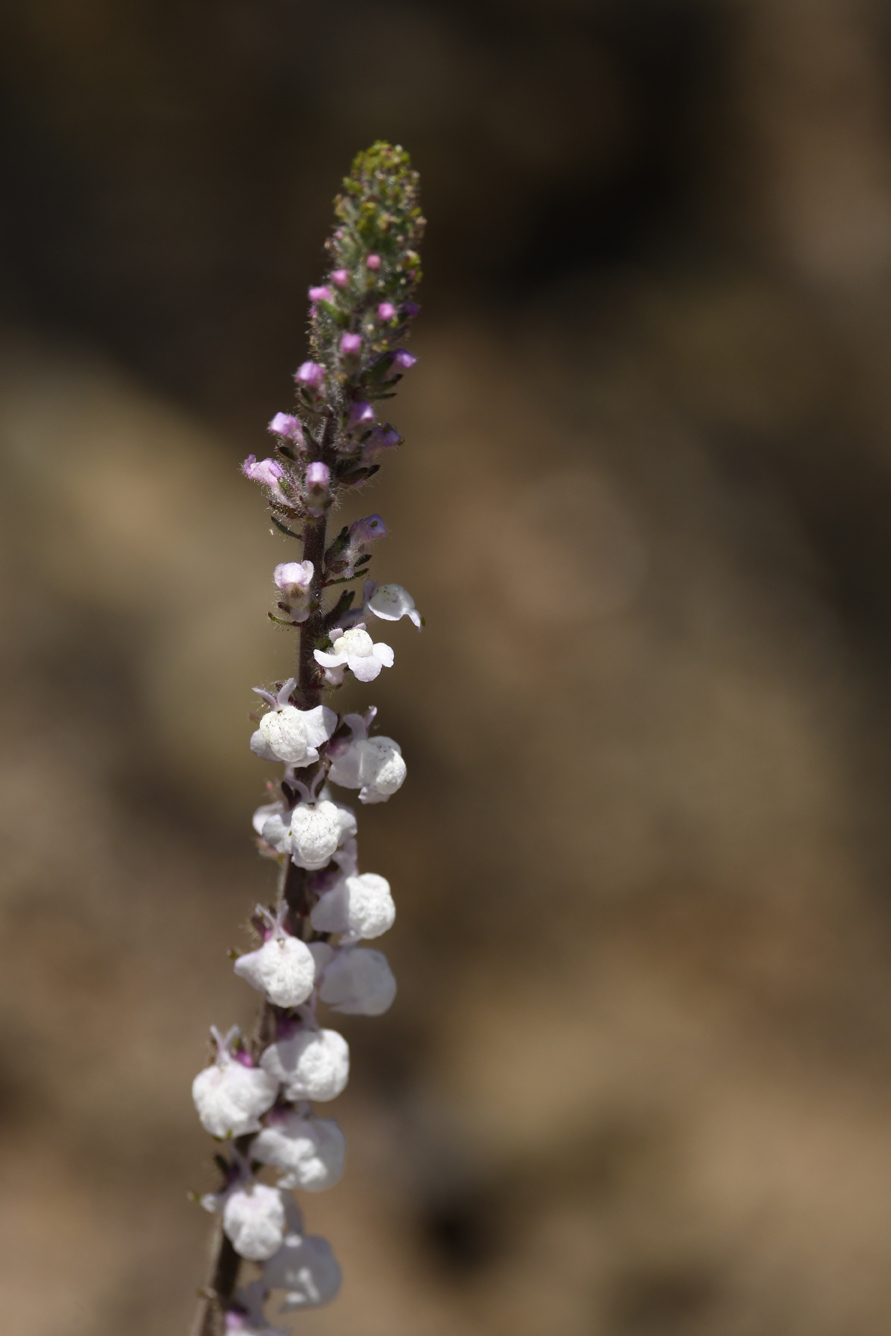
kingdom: Plantae
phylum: Tracheophyta
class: Magnoliopsida
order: Lamiales
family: Plantaginaceae
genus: Sairocarpus
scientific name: Sairocarpus coulterianus
